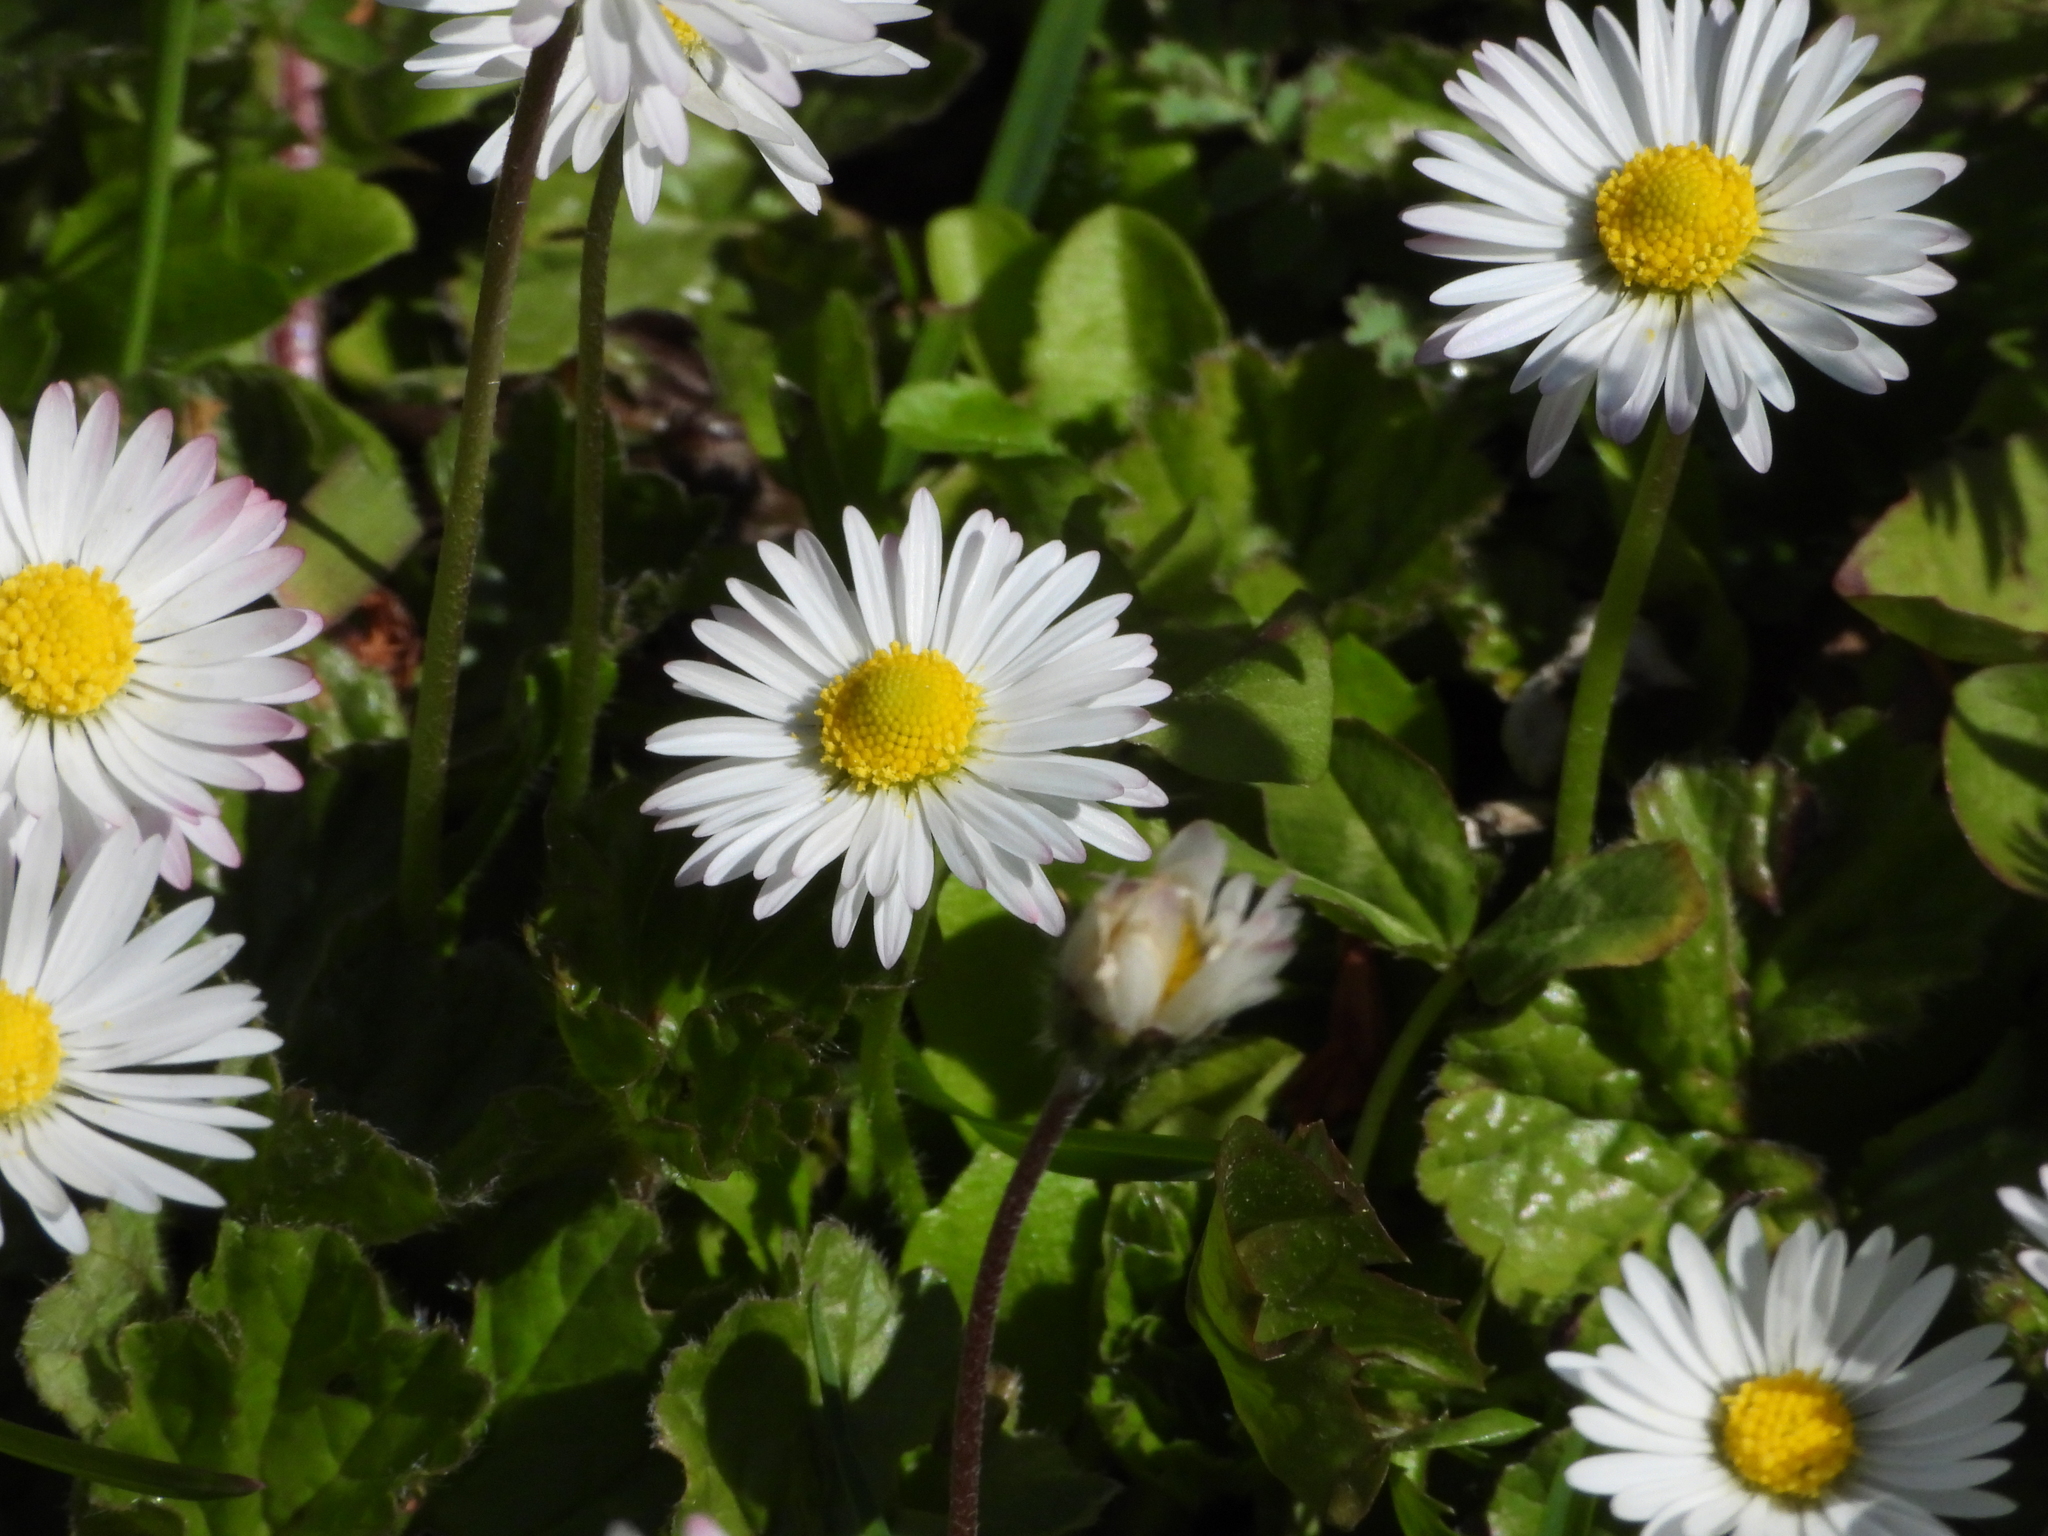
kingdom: Plantae
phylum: Tracheophyta
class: Magnoliopsida
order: Asterales
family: Asteraceae
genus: Bellis
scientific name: Bellis perennis
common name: Lawndaisy
